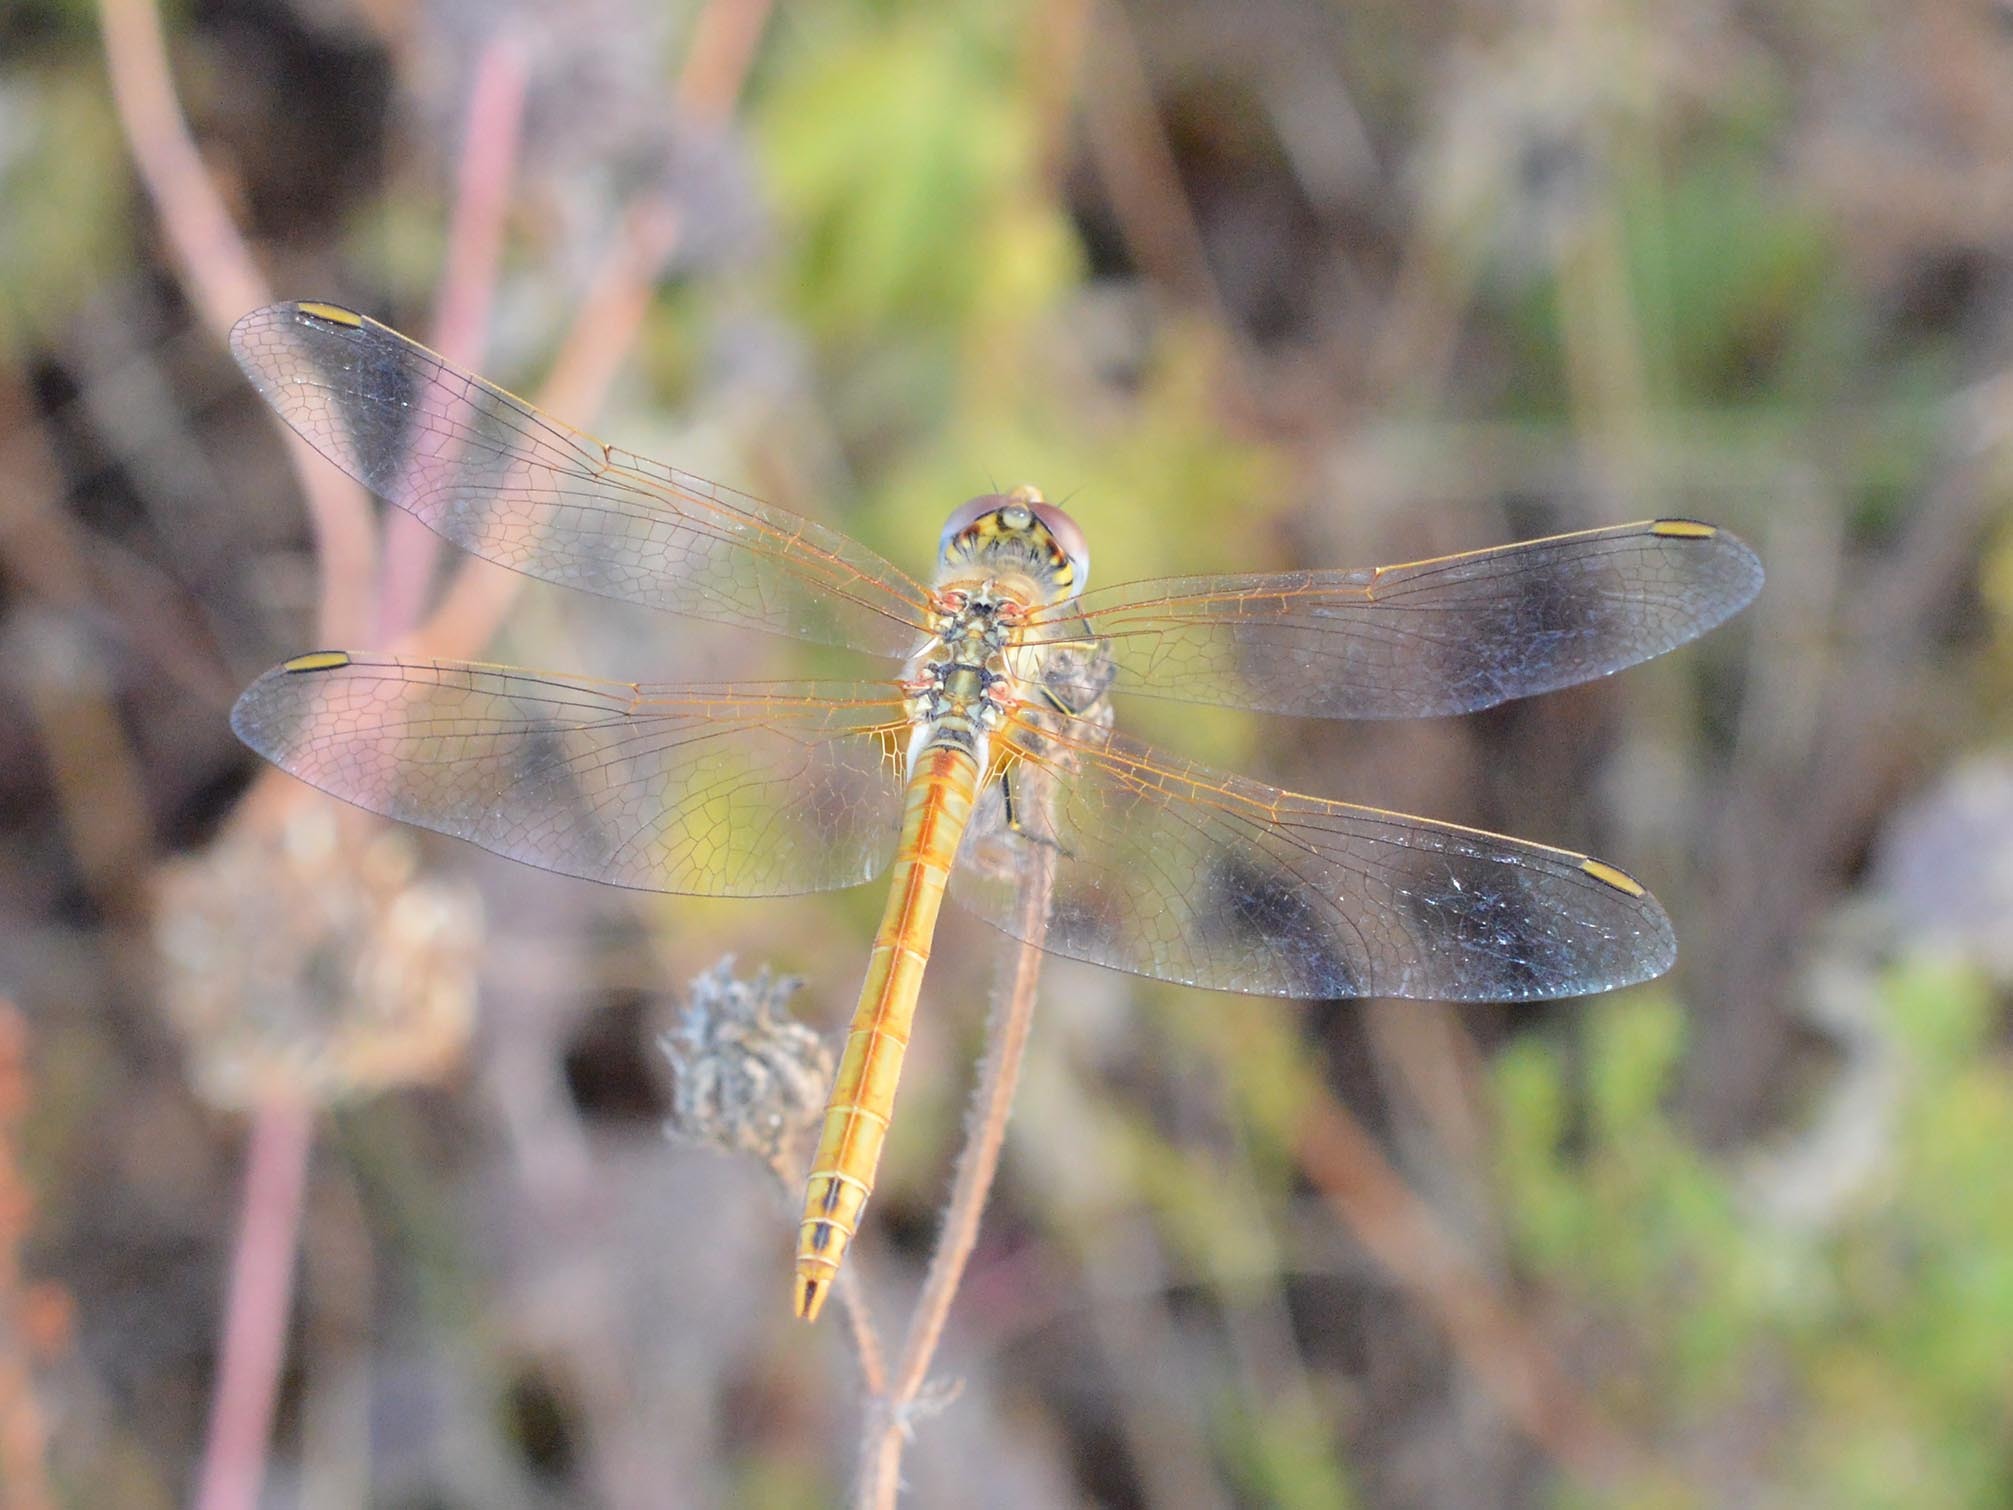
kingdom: Animalia
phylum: Arthropoda
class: Insecta
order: Odonata
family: Libellulidae
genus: Sympetrum
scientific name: Sympetrum fonscolombii
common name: Red-veined darter
